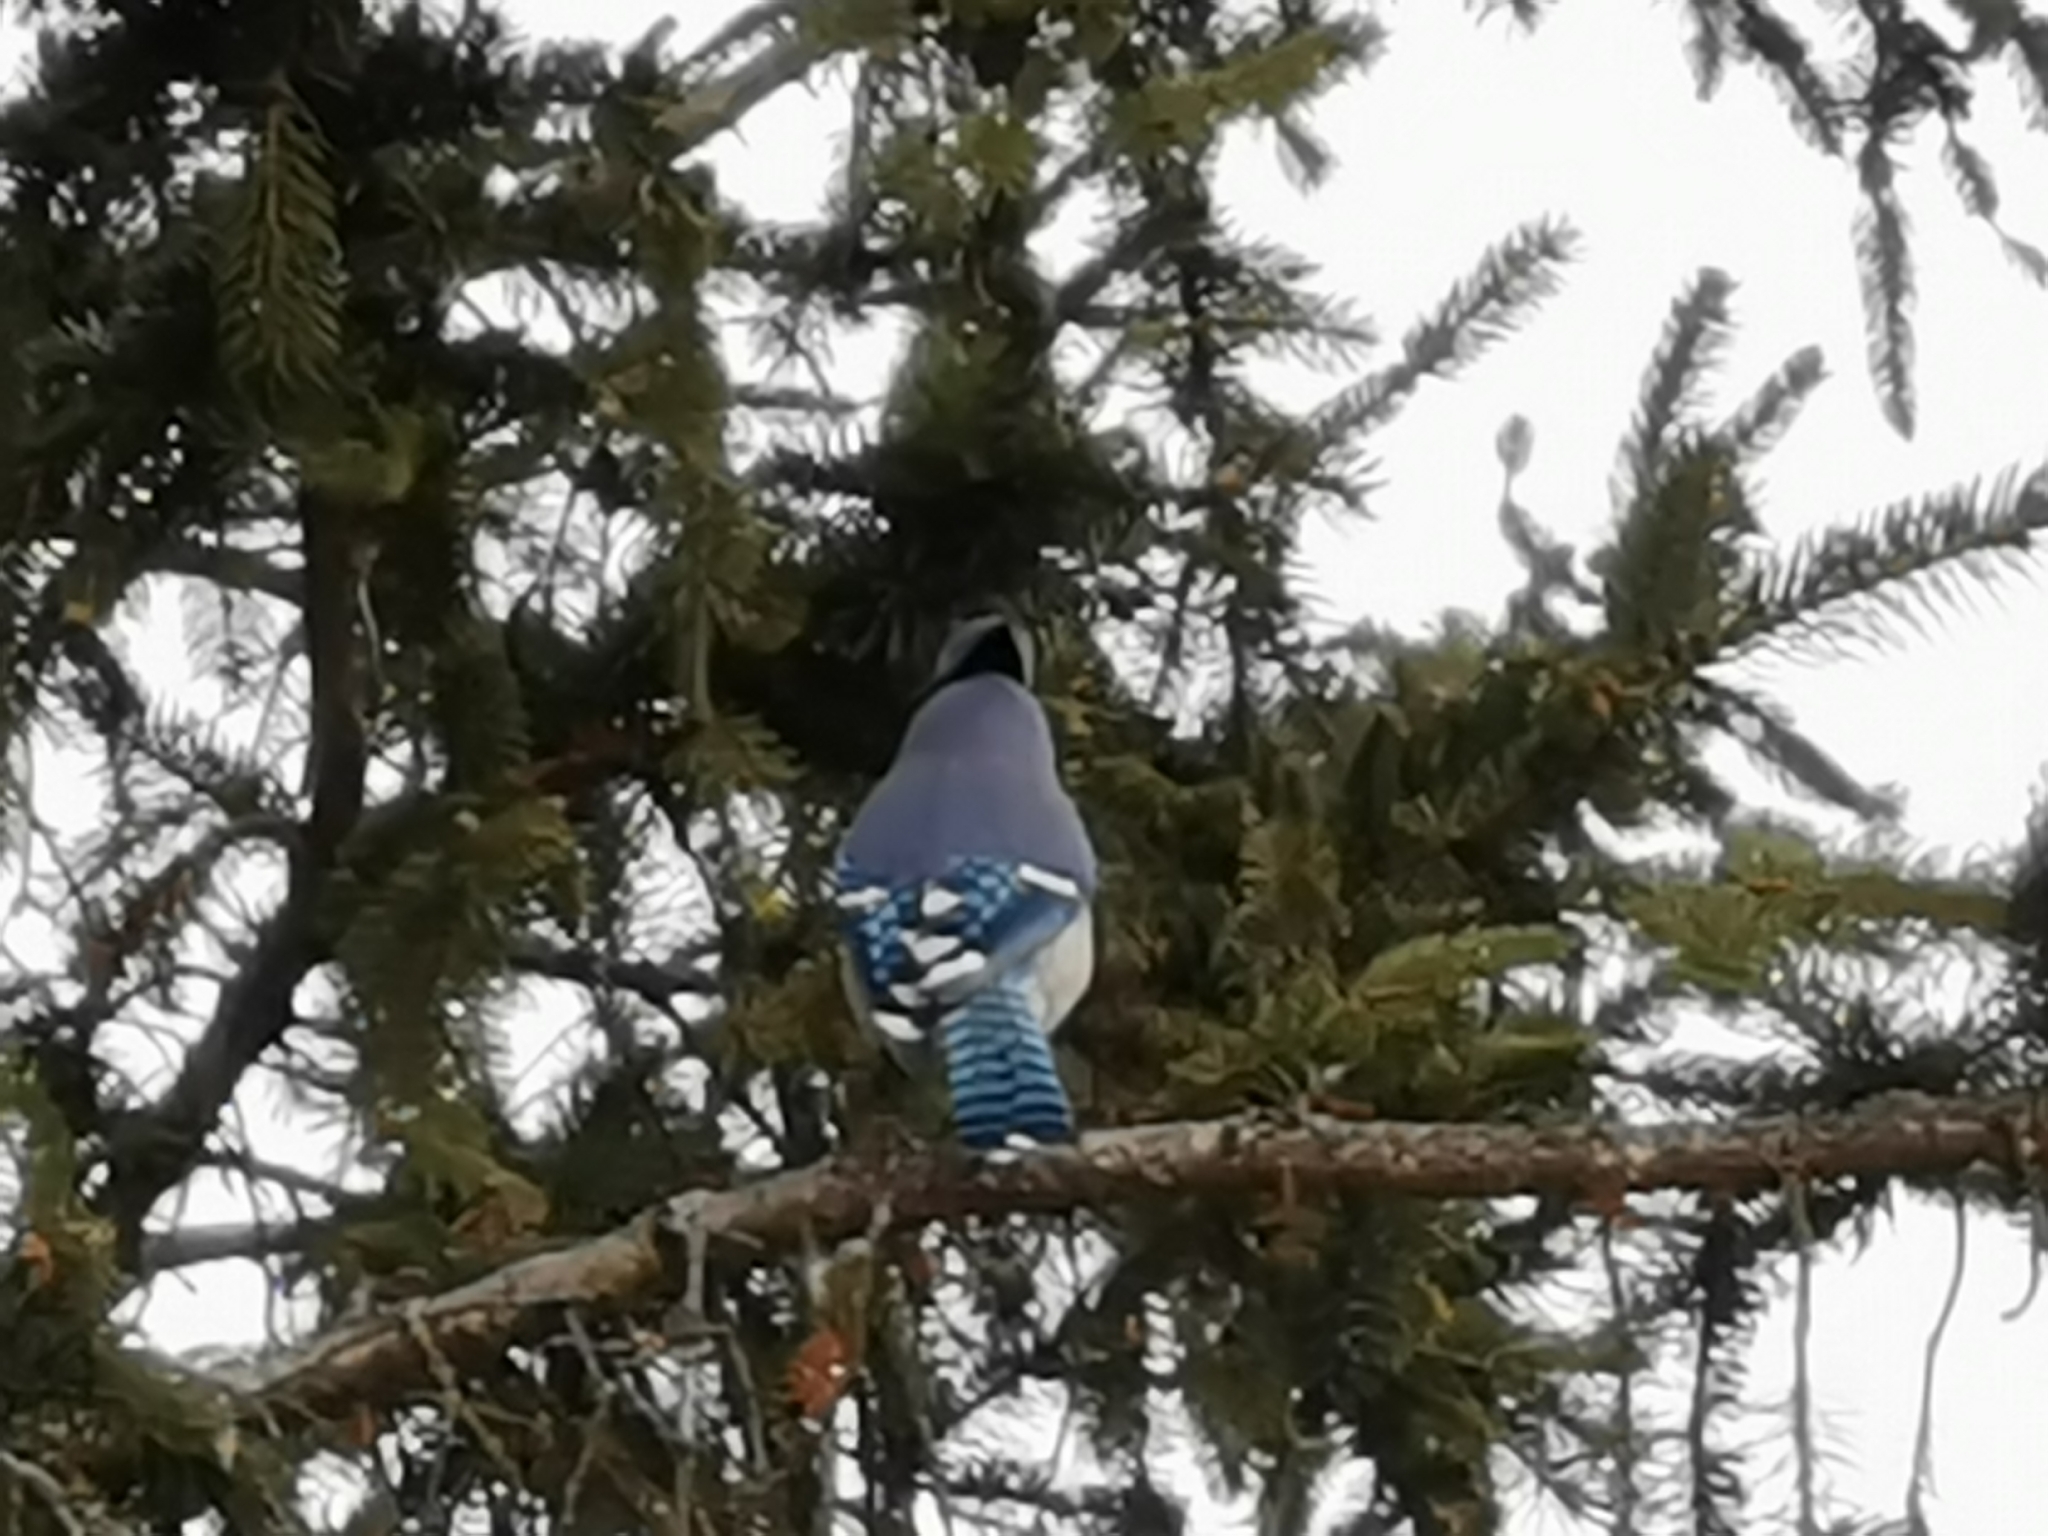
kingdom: Animalia
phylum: Chordata
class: Aves
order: Passeriformes
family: Corvidae
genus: Cyanocitta
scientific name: Cyanocitta cristata
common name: Blue jay
